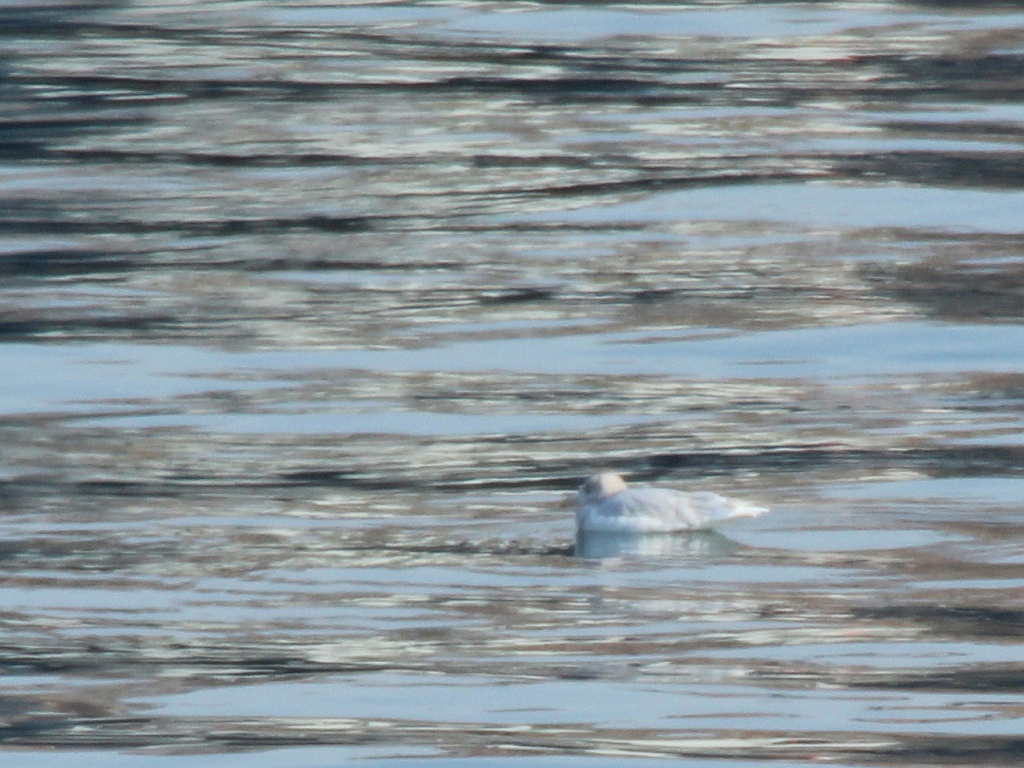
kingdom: Animalia
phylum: Chordata
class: Aves
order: Charadriiformes
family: Laridae
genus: Larus
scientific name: Larus hyperboreus
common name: Glaucous gull
